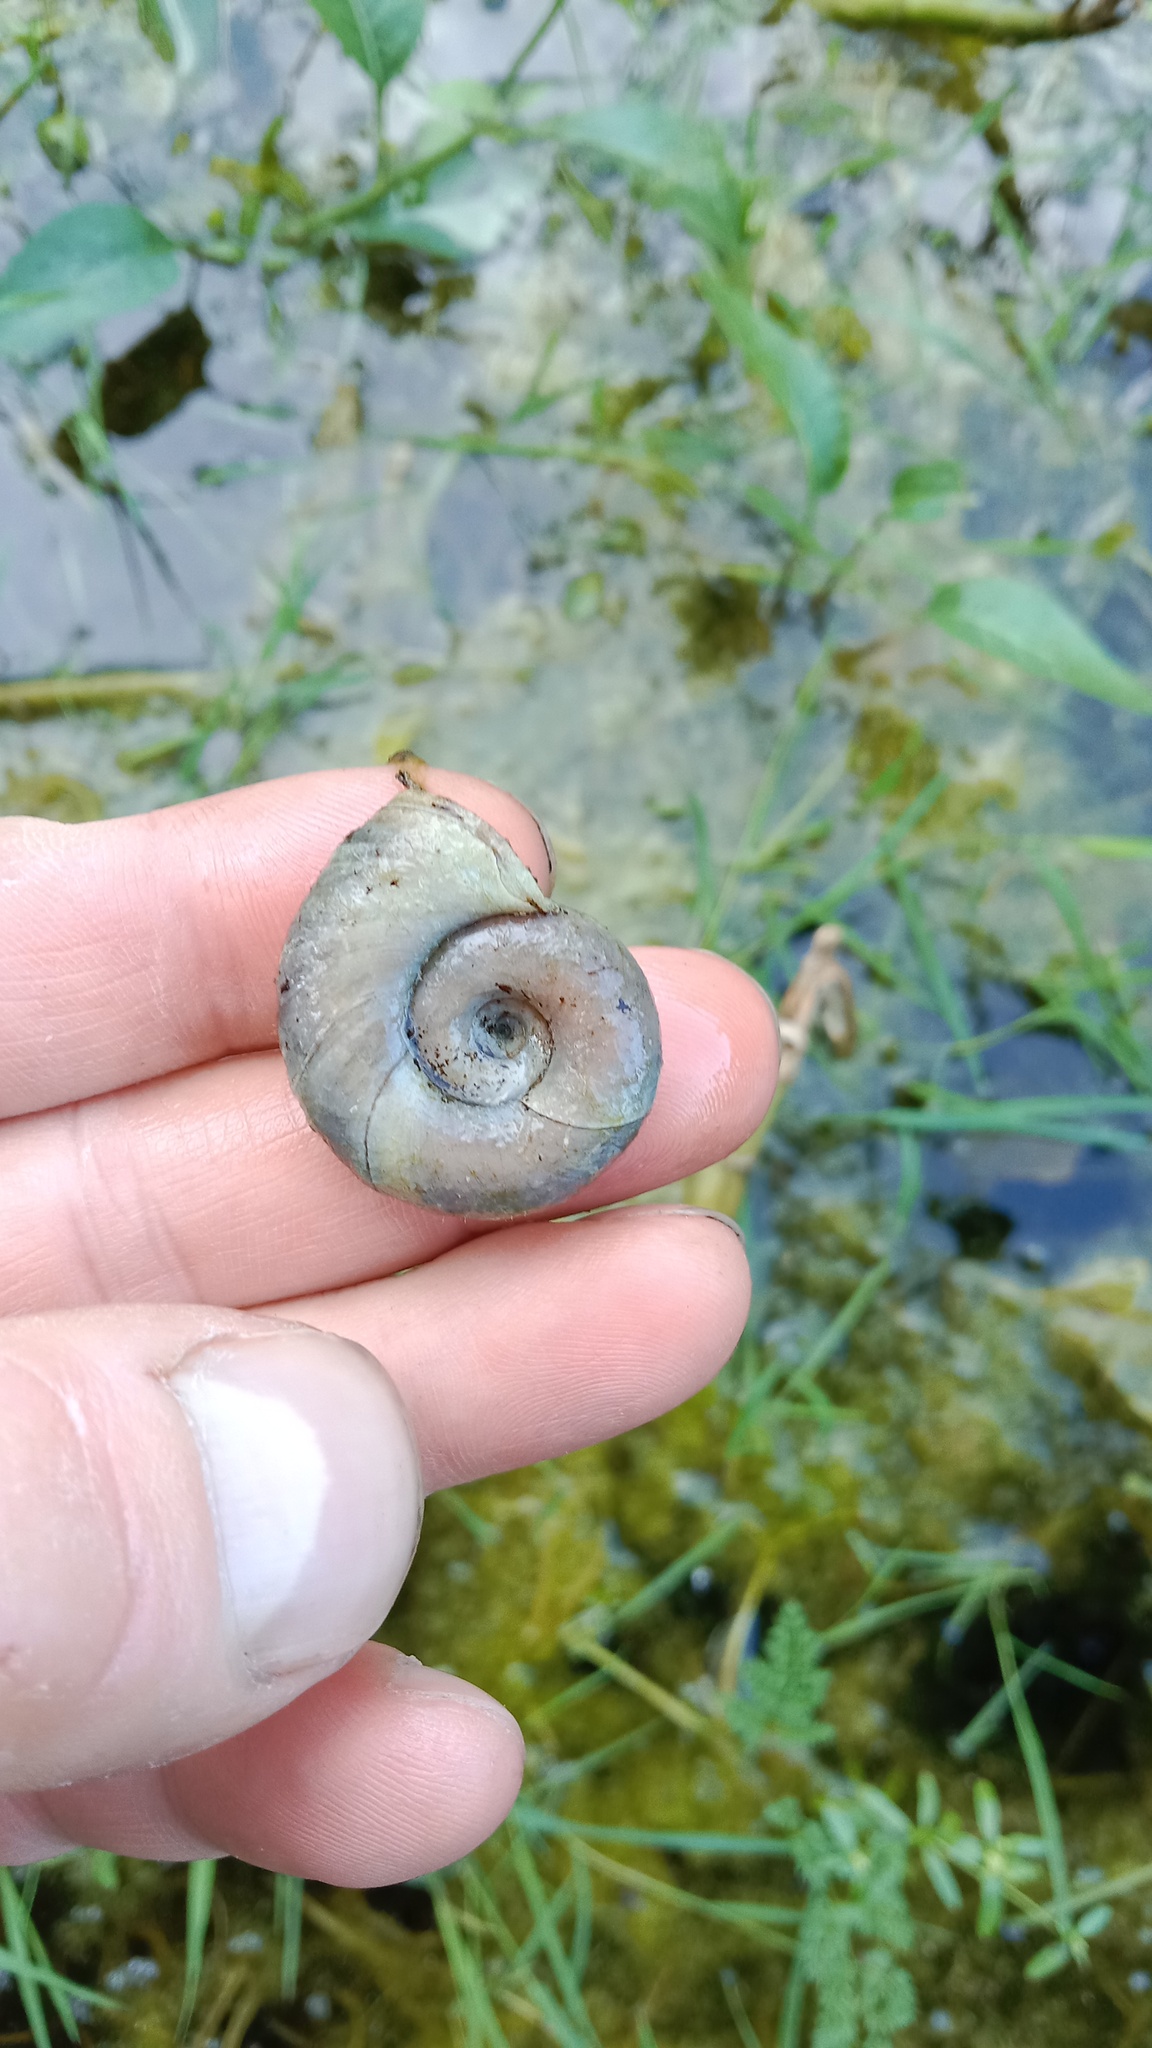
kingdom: Animalia
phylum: Mollusca
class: Gastropoda
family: Planorbidae
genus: Planorbarius
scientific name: Planorbarius corneus
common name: Great ramshorn
